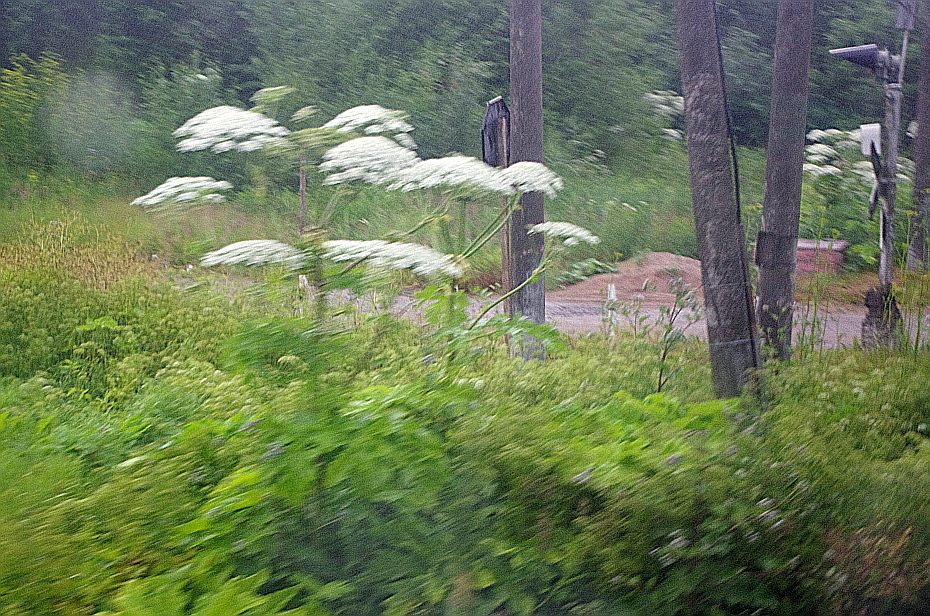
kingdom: Plantae
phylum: Tracheophyta
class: Magnoliopsida
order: Apiales
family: Apiaceae
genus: Heracleum
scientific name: Heracleum sosnowskyi
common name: Sosnowsky's hogweed
